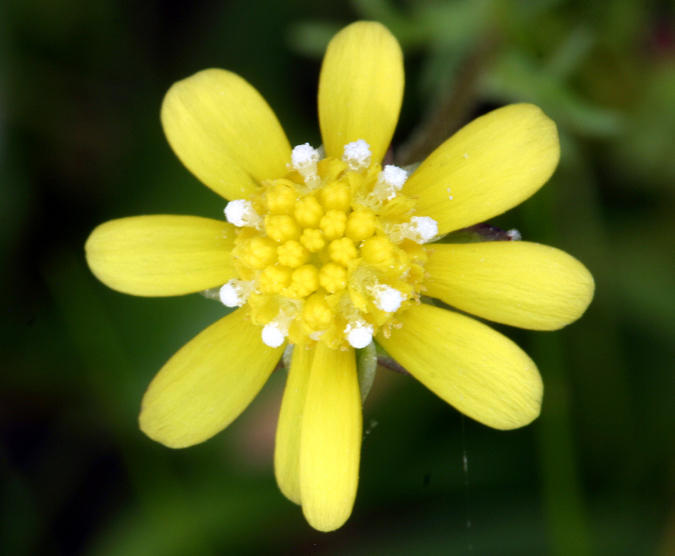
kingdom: Plantae
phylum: Tracheophyta
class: Magnoliopsida
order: Asterales
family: Asteraceae
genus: Blennosperma
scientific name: Blennosperma nanum
